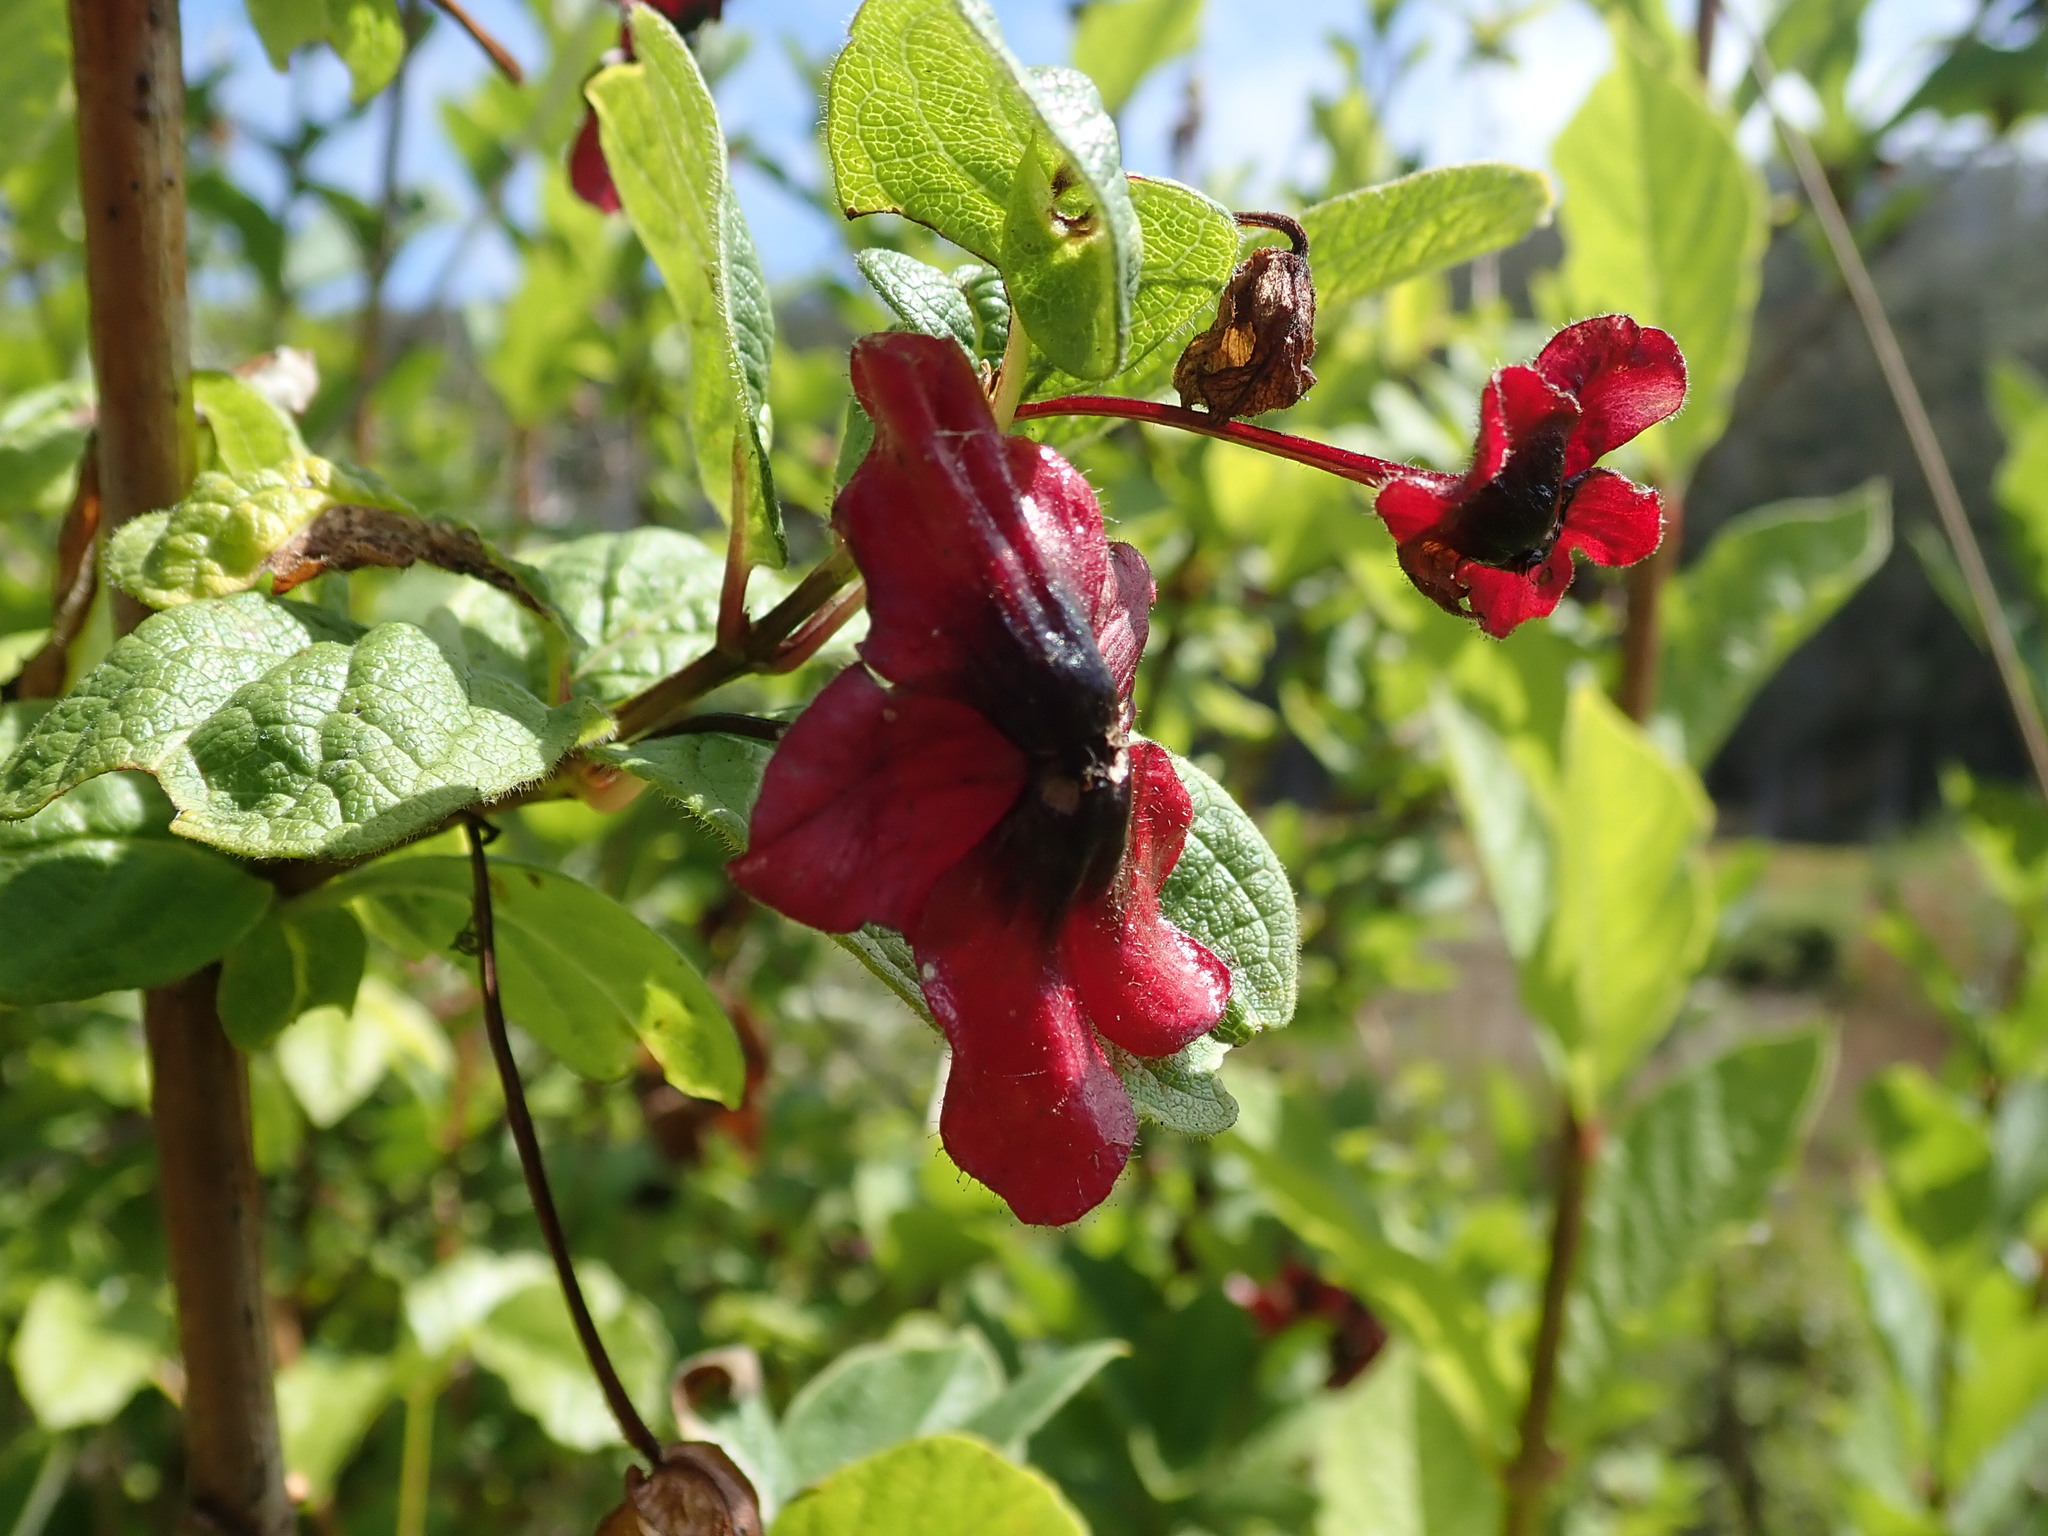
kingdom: Plantae
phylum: Tracheophyta
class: Magnoliopsida
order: Dipsacales
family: Caprifoliaceae
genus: Lonicera
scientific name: Lonicera involucrata
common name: Californian honeysuckle
